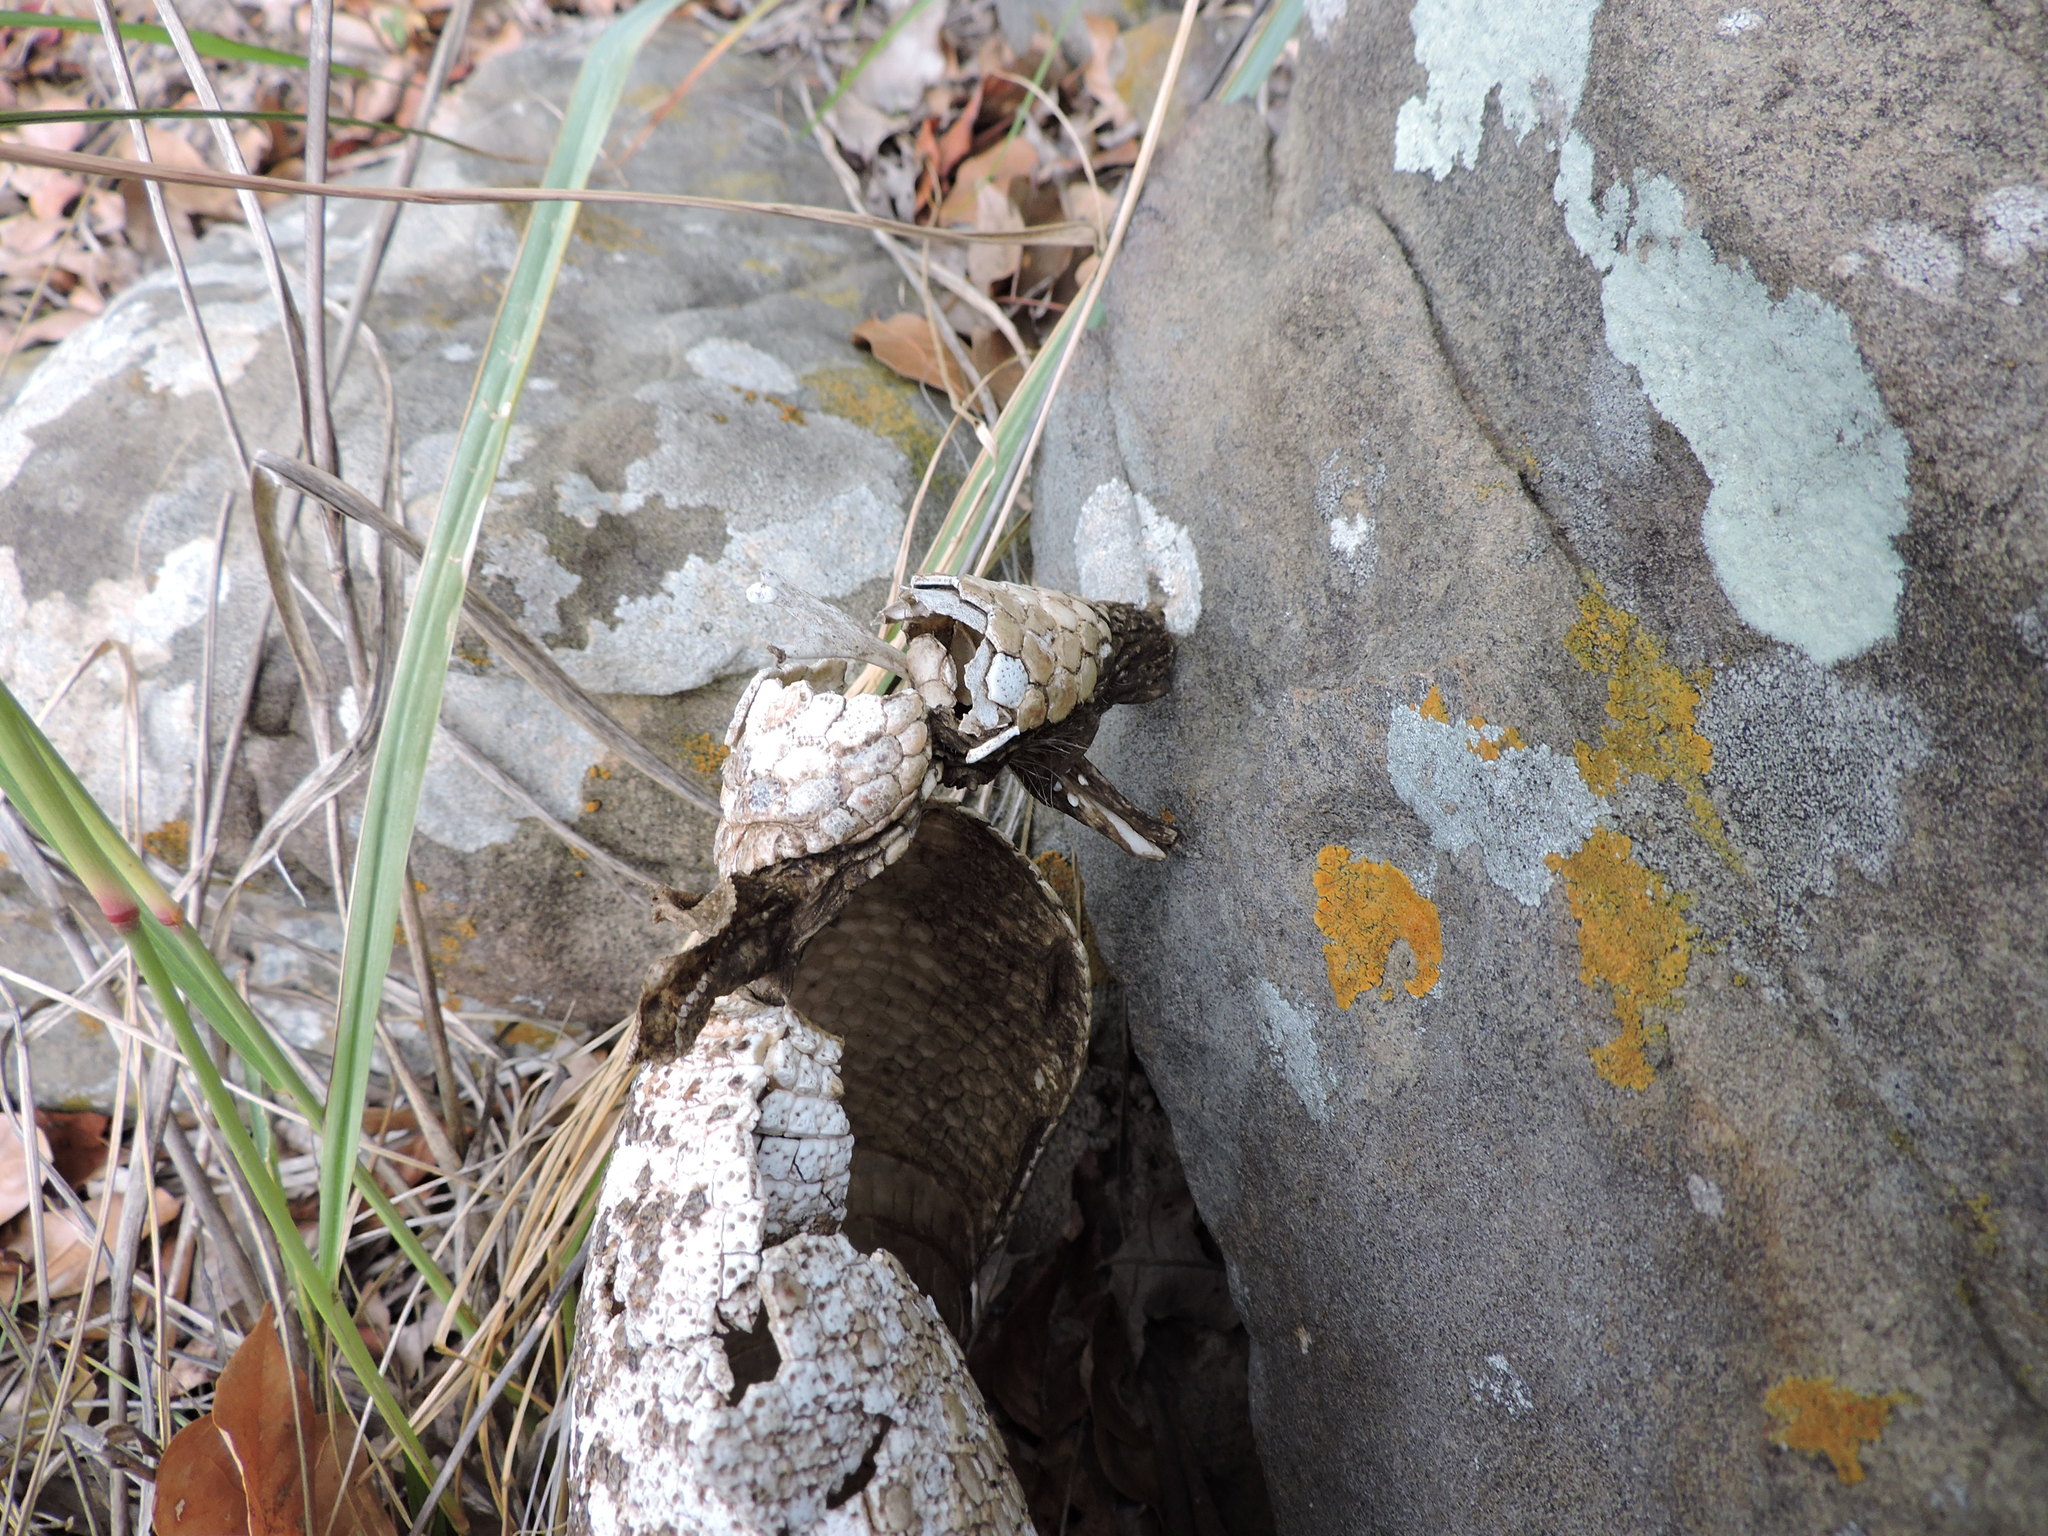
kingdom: Animalia
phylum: Chordata
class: Mammalia
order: Cingulata
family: Dasypodidae
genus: Dasypus
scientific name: Dasypus novemcinctus
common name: Nine-banded armadillo
